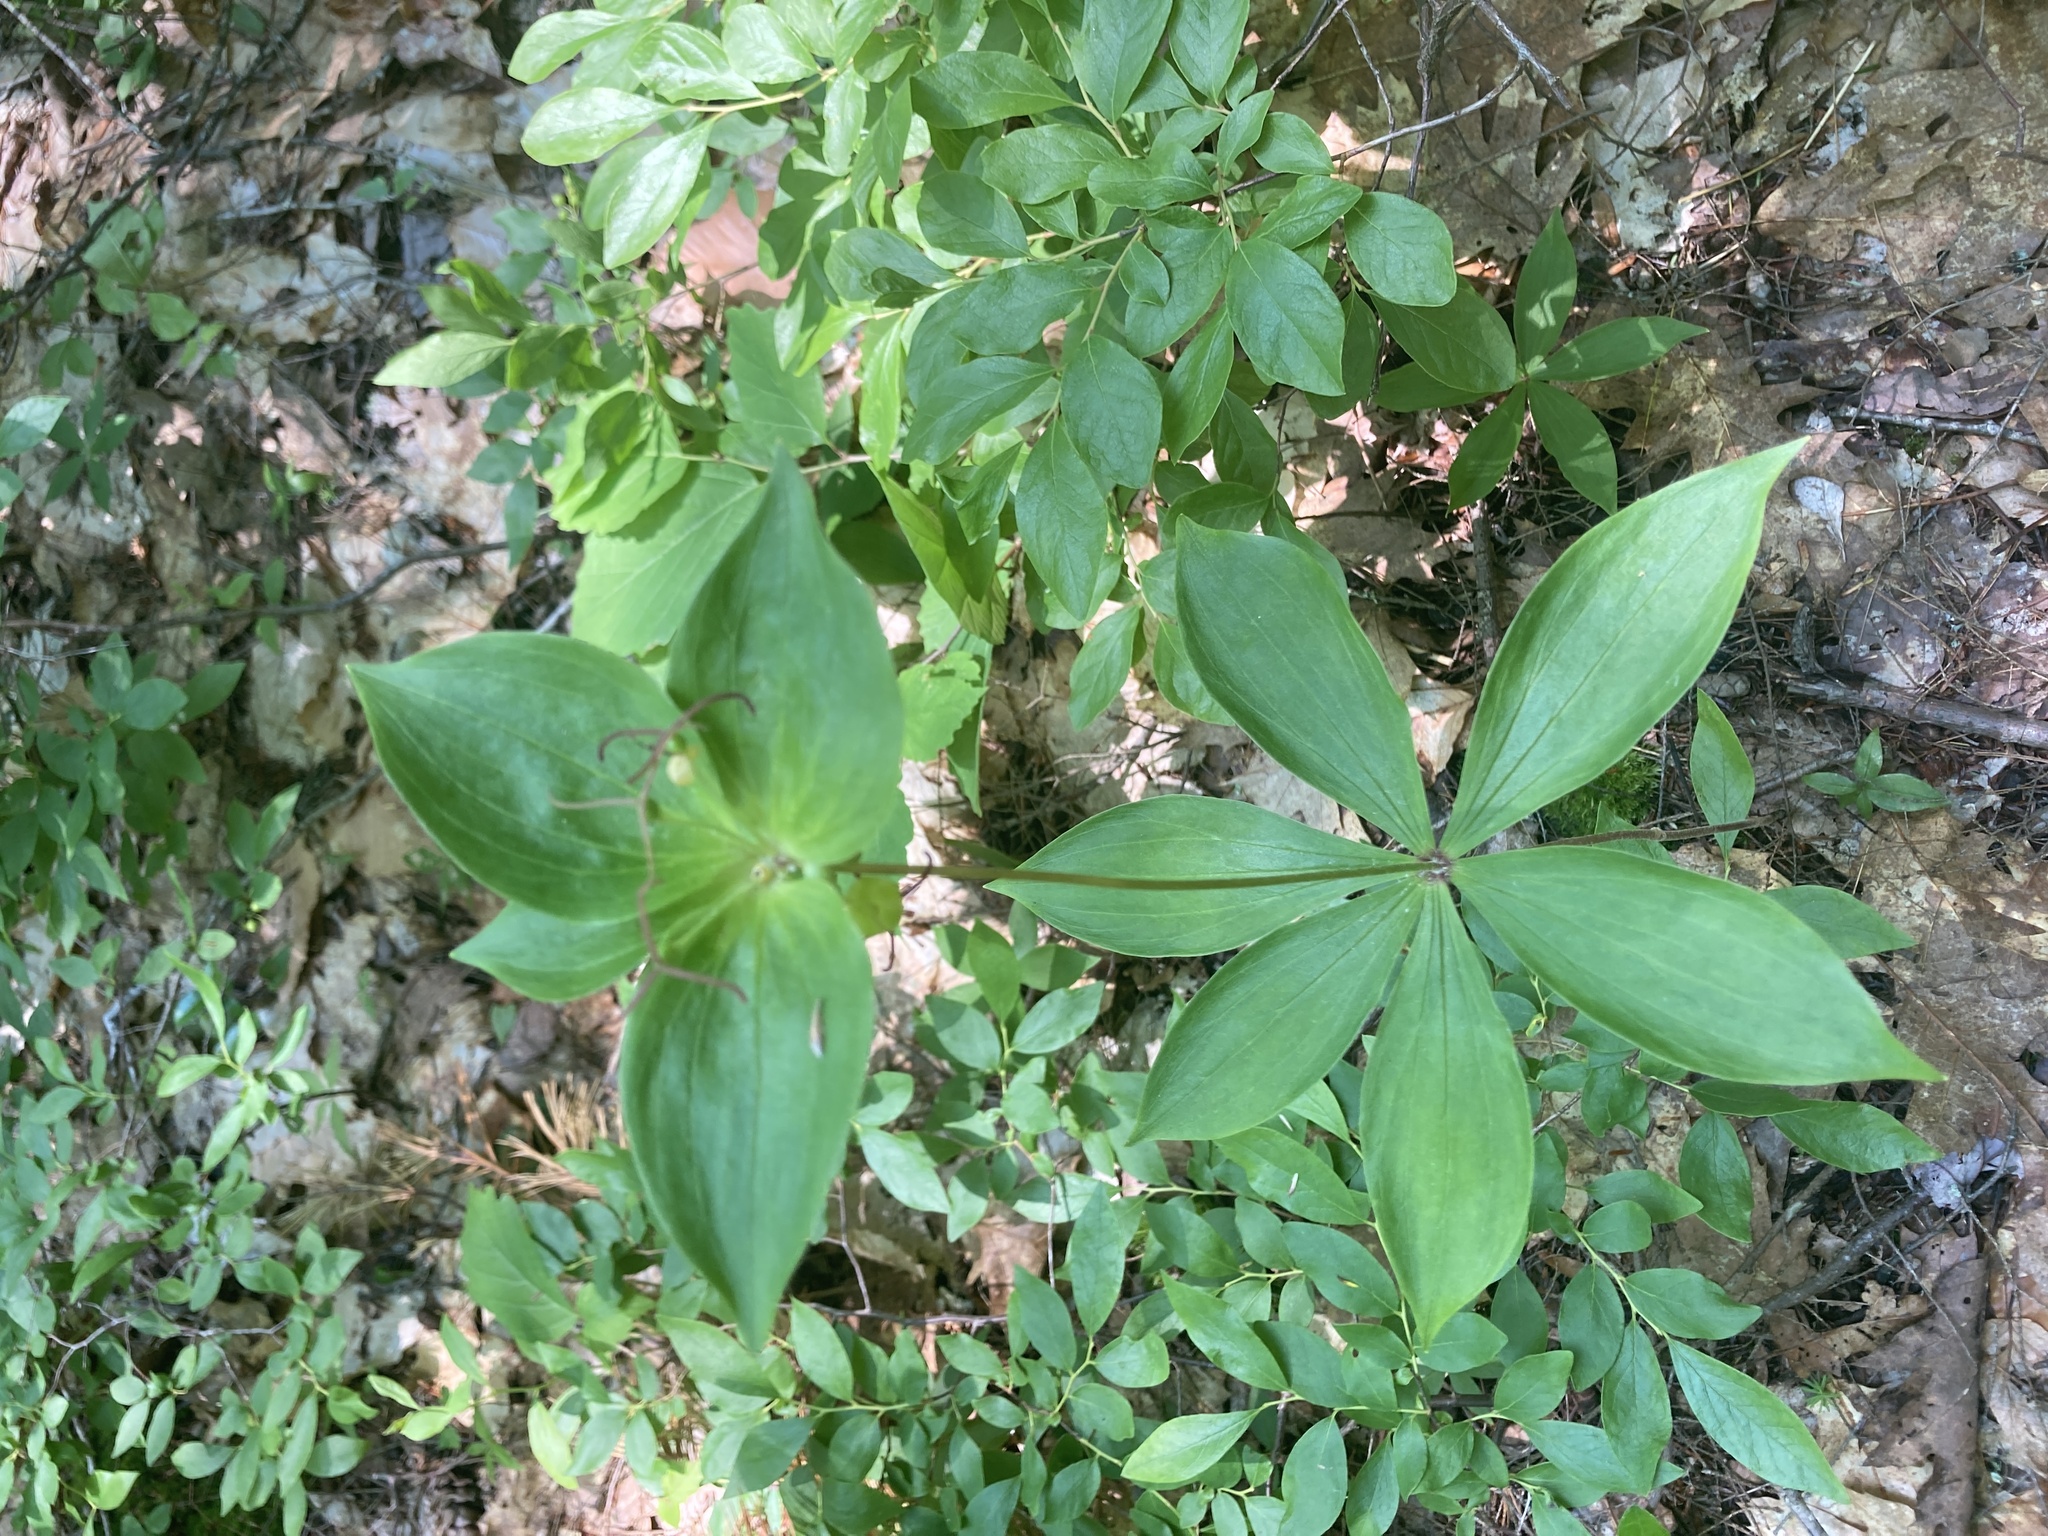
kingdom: Plantae
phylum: Tracheophyta
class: Liliopsida
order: Liliales
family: Liliaceae
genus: Medeola
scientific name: Medeola virginiana
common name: Indian cucumber-root
